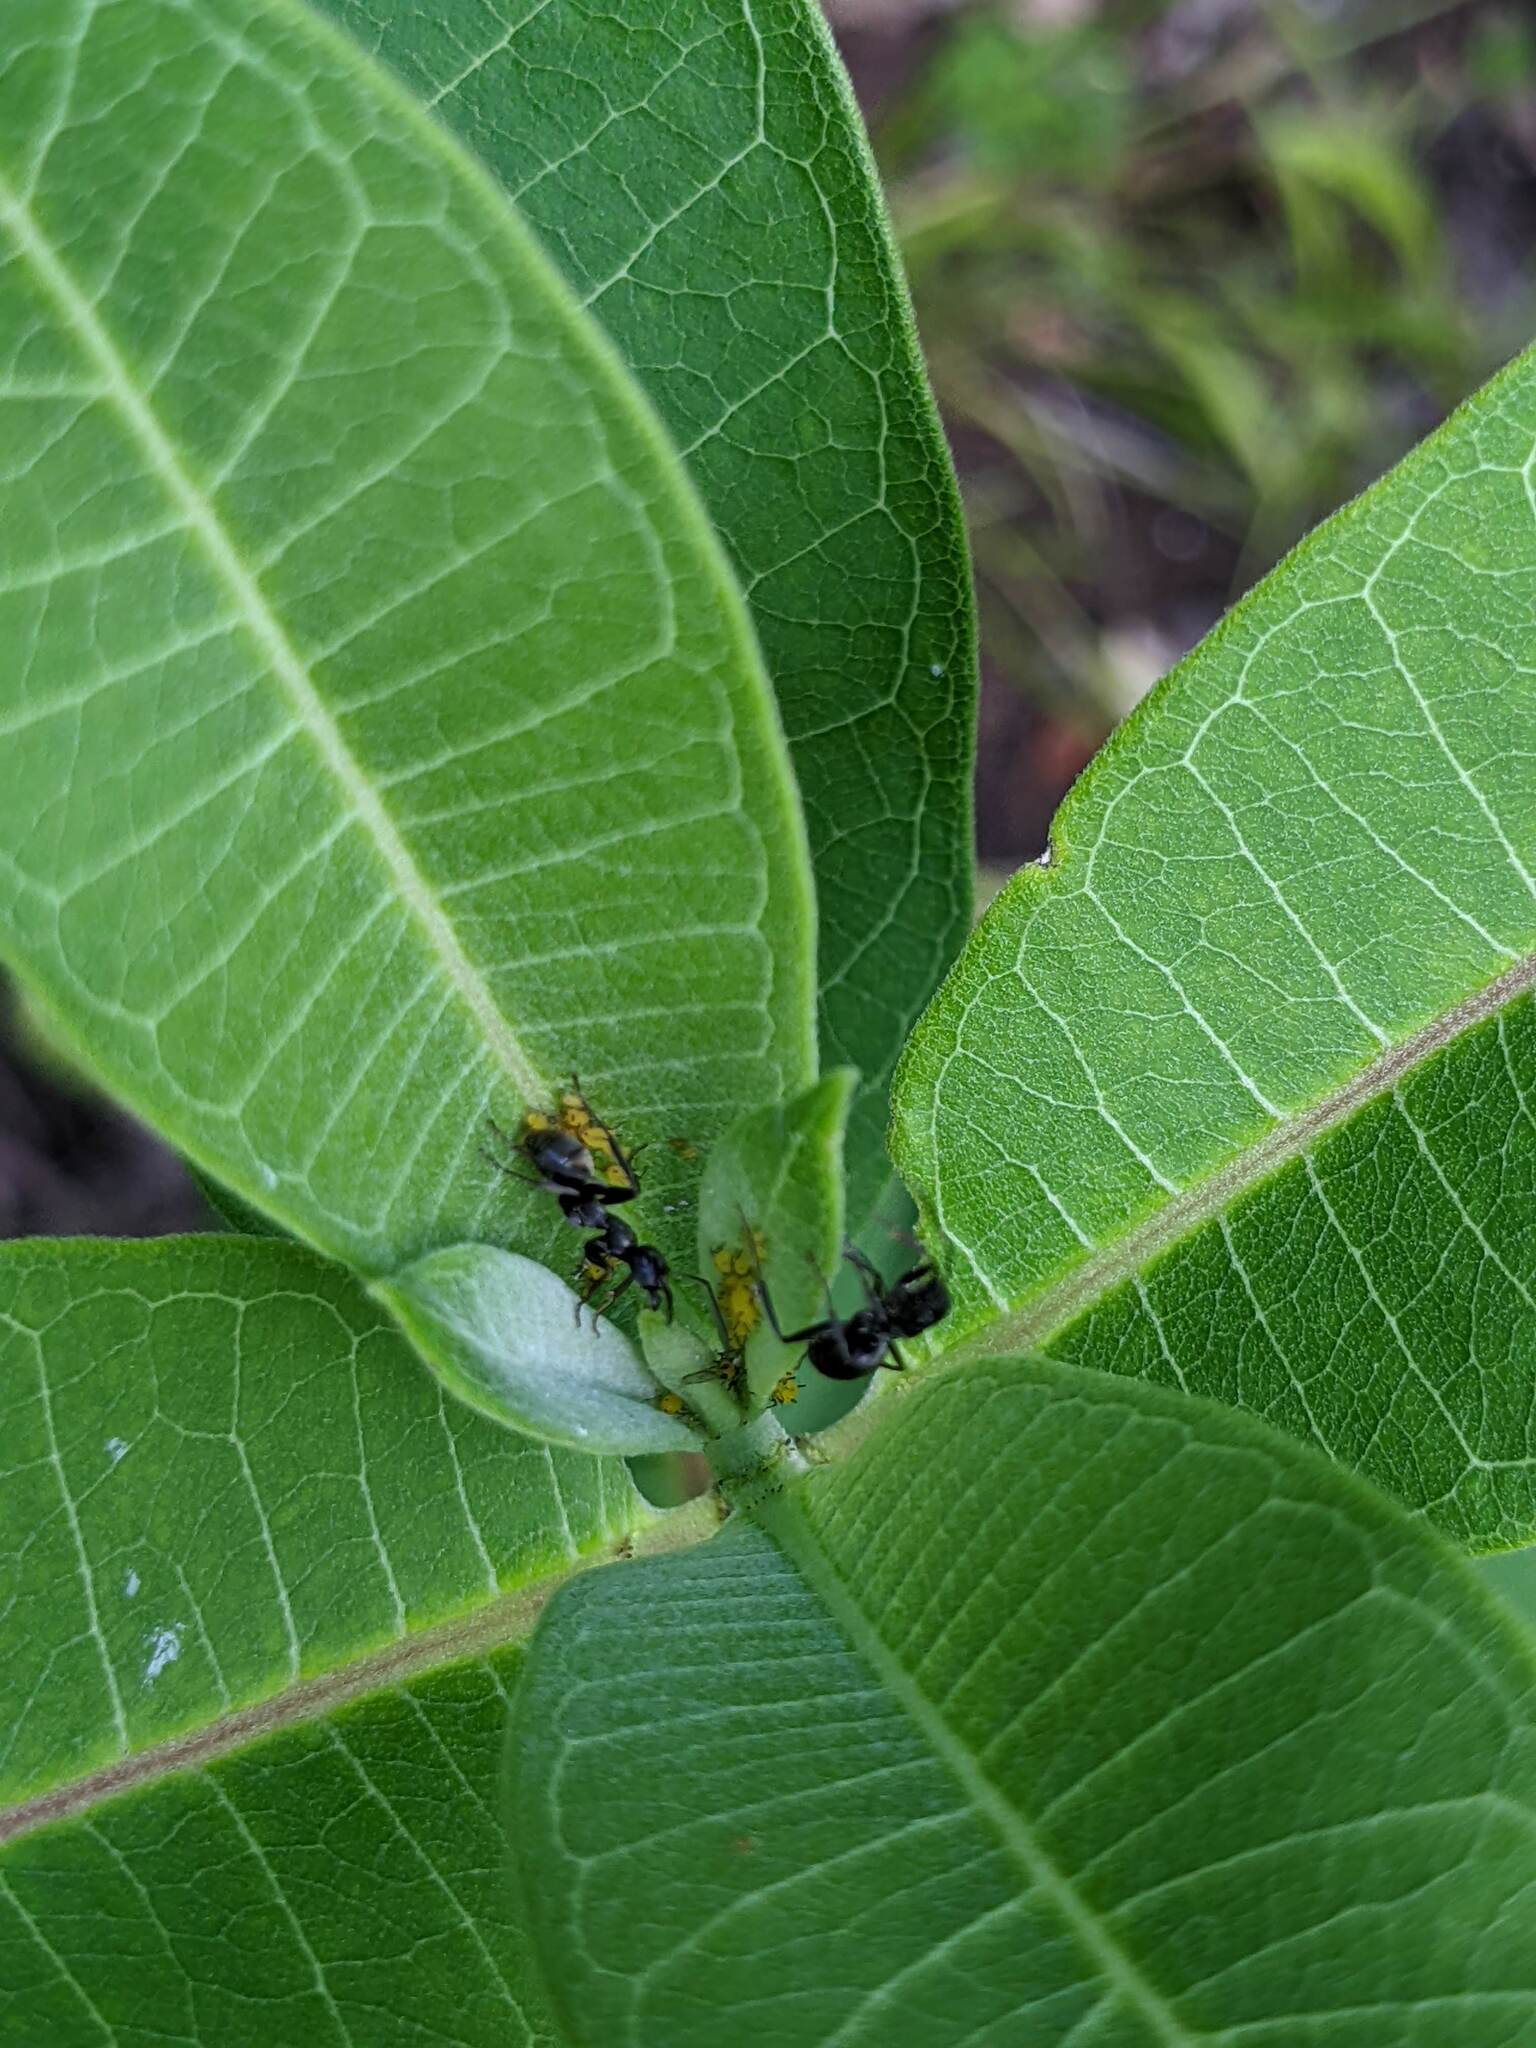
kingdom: Animalia
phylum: Arthropoda
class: Insecta
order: Hymenoptera
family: Formicidae
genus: Formica
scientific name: Formica
